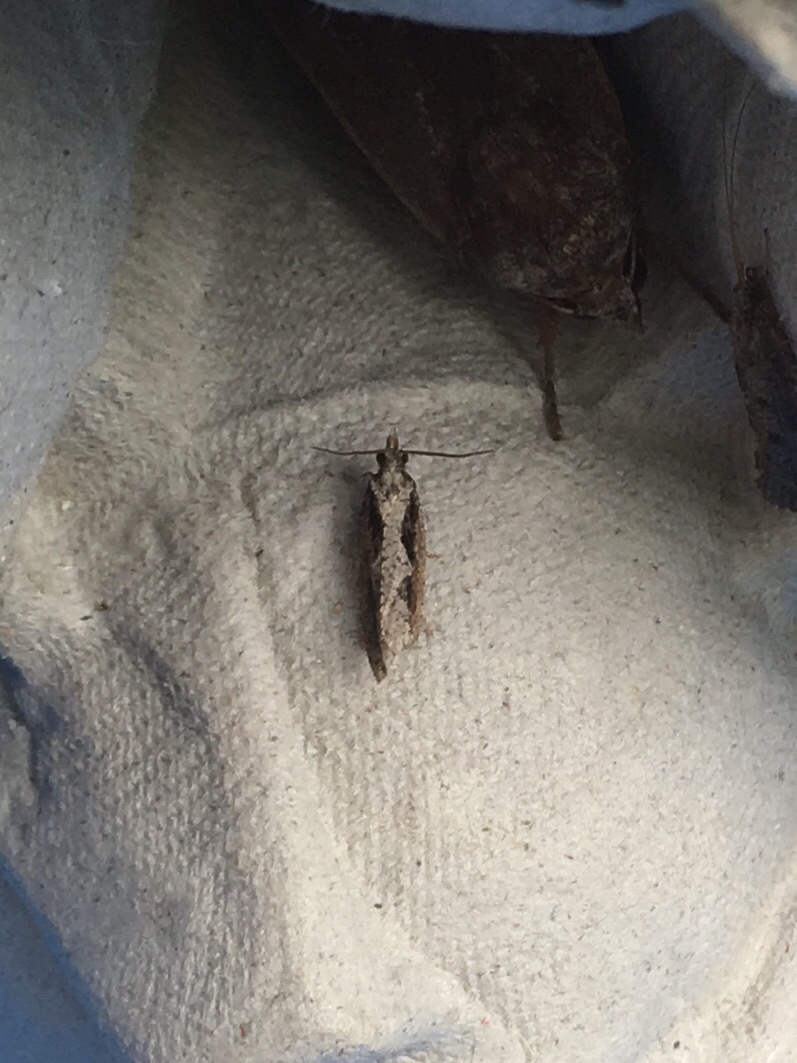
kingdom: Animalia
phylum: Arthropoda
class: Insecta
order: Lepidoptera
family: Tortricidae
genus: Epinotia
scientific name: Epinotia lindana
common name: Diamondback epinotia moth
